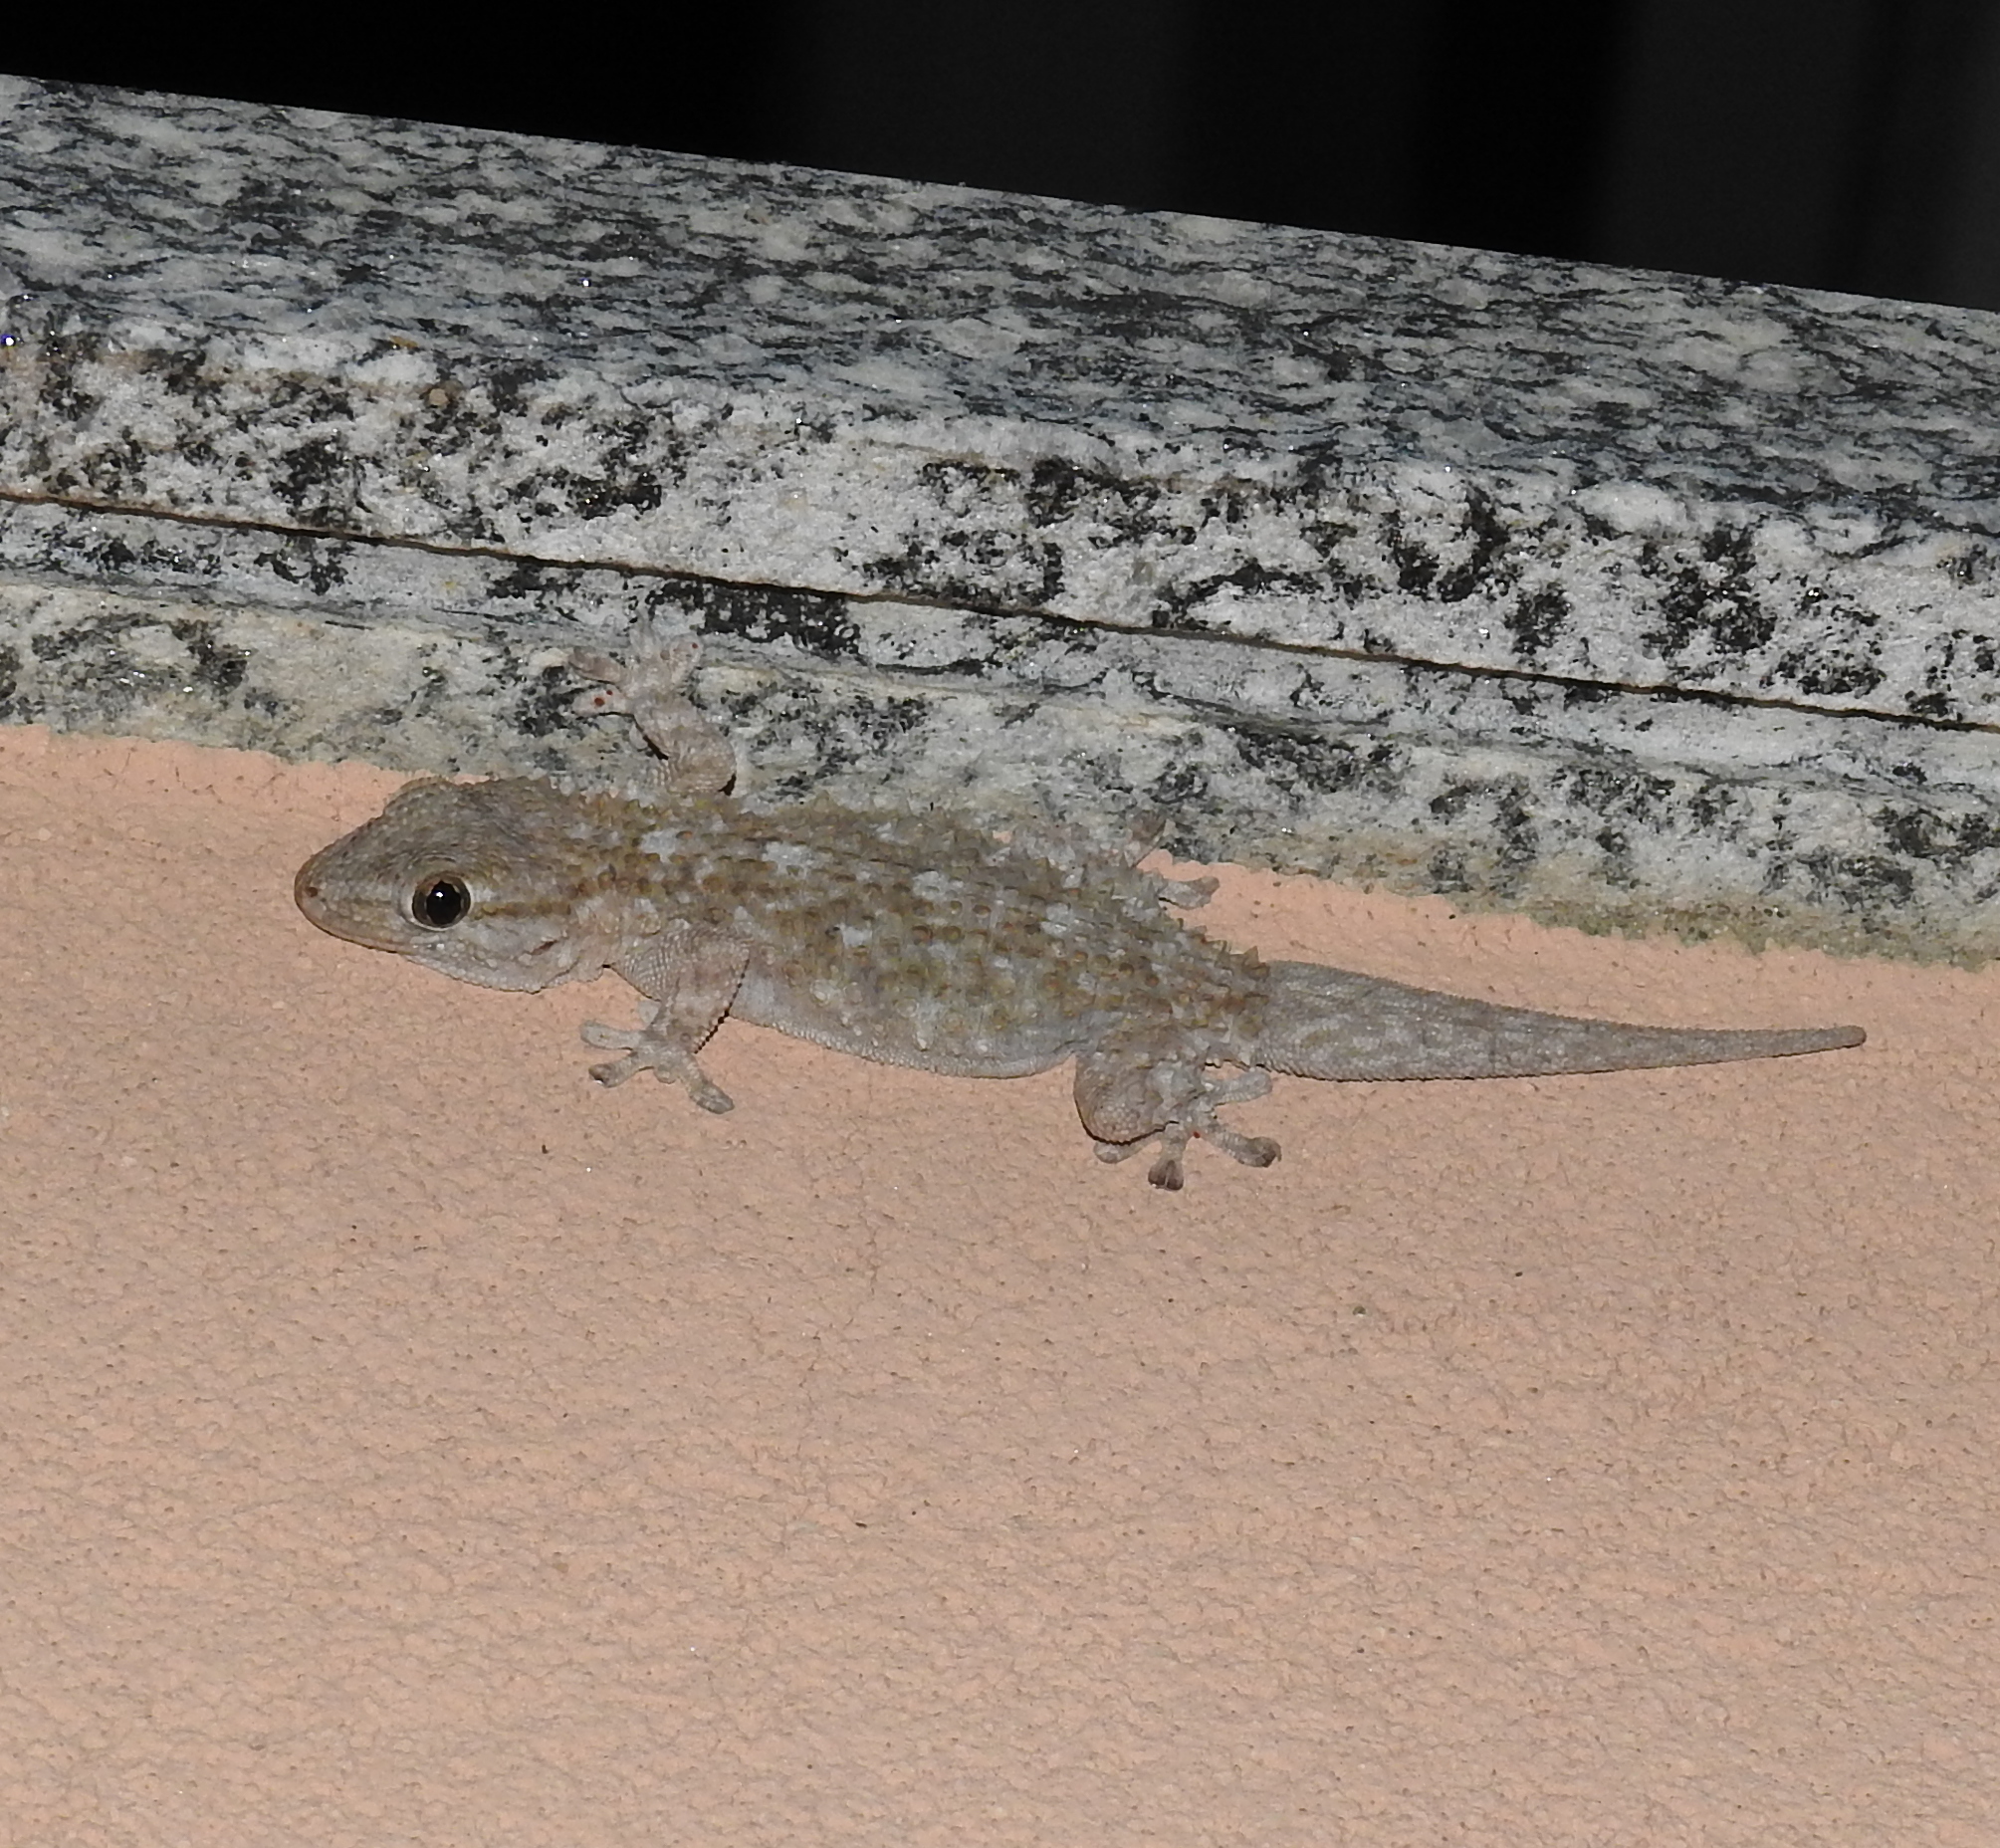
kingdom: Animalia
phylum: Chordata
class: Squamata
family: Phyllodactylidae
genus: Tarentola
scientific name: Tarentola mauritanica
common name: Moorish gecko
